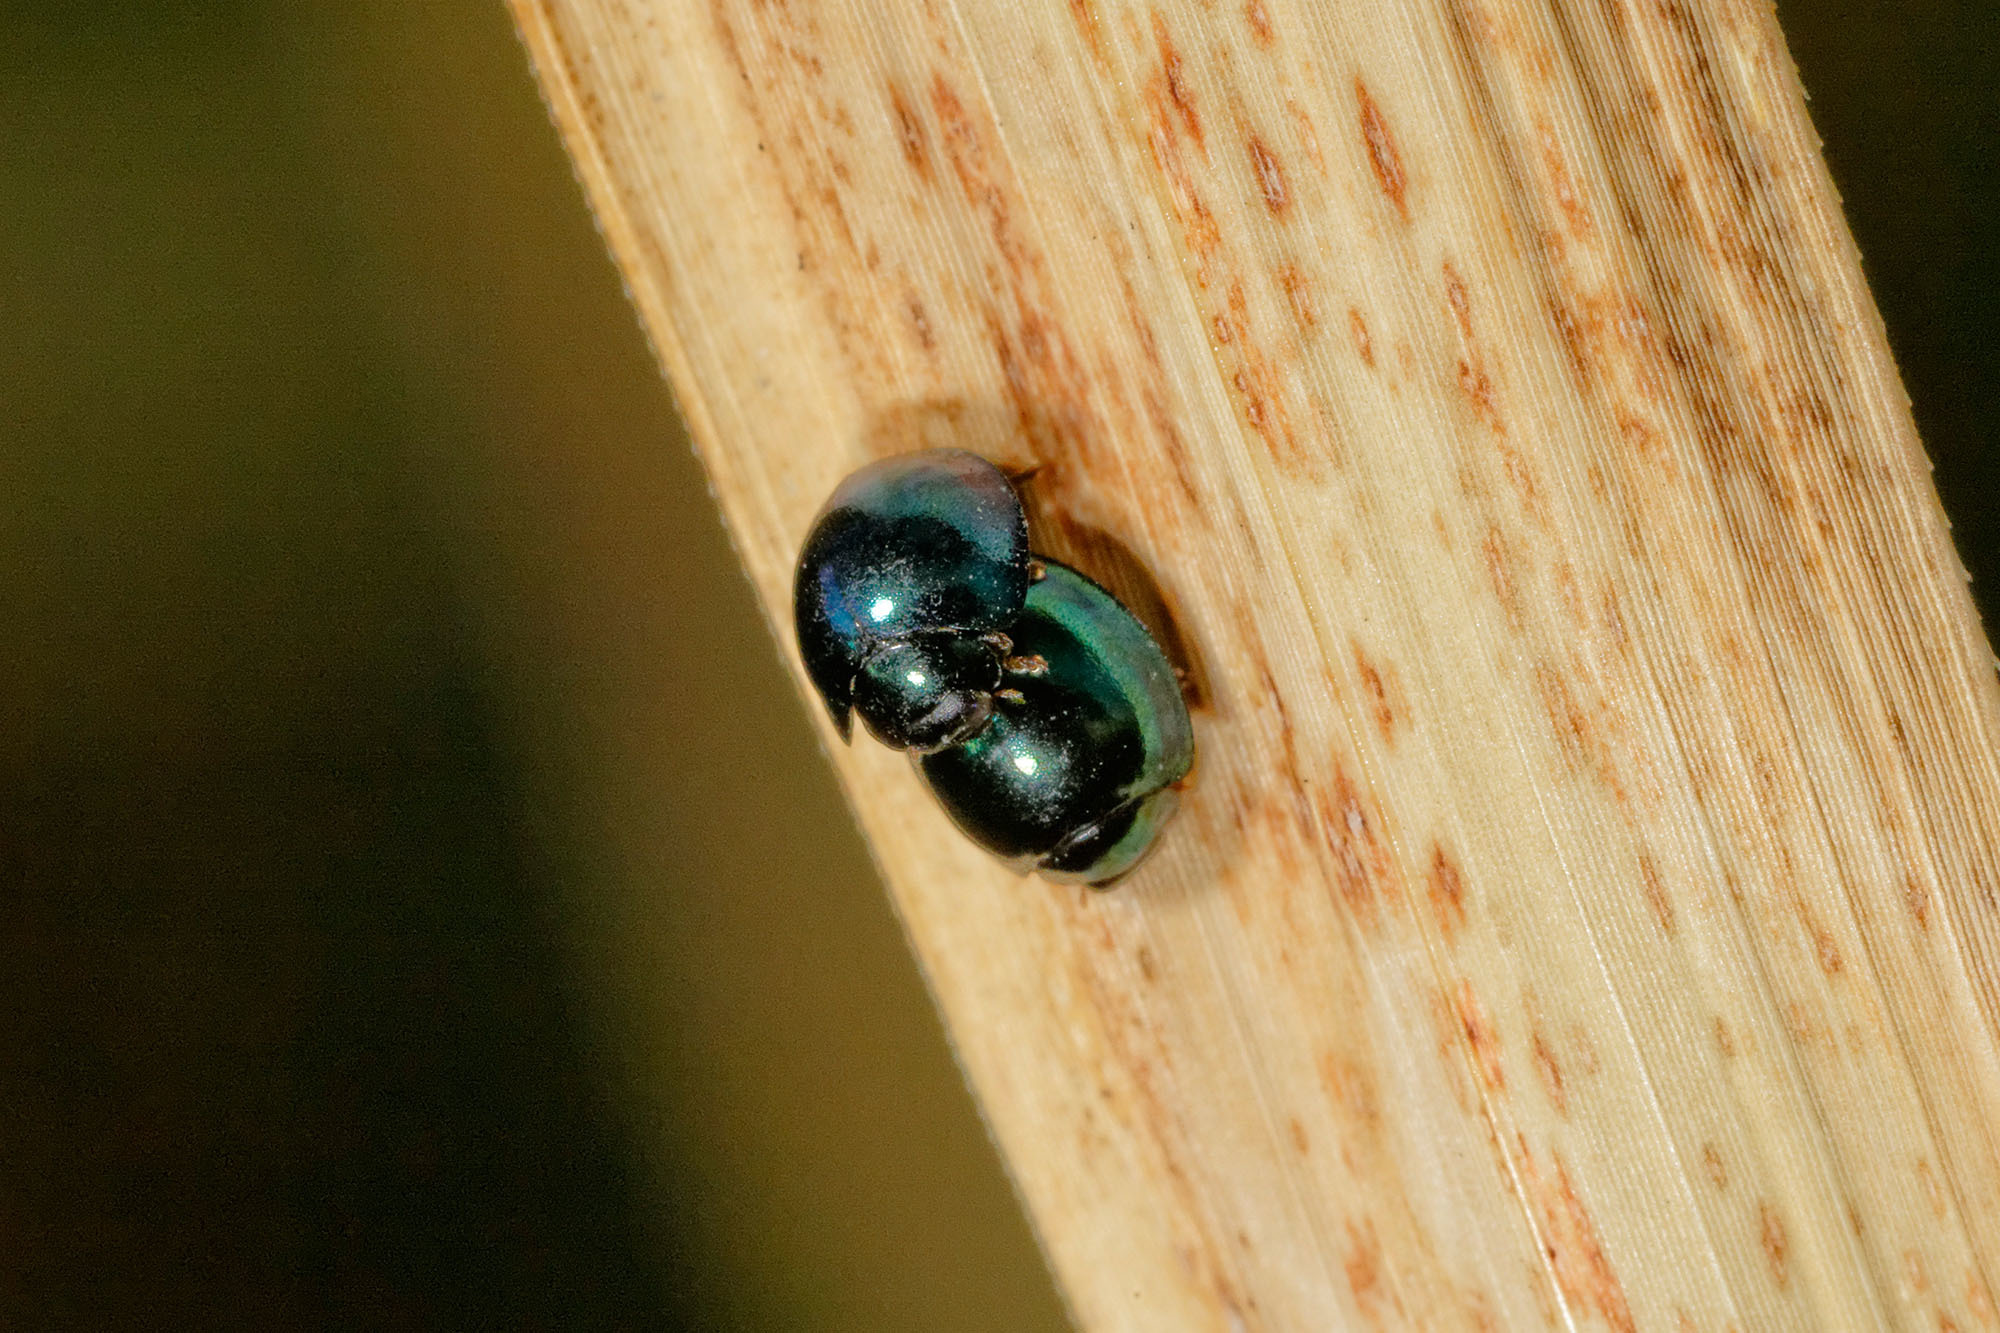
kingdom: Animalia
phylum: Arthropoda
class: Insecta
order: Coleoptera
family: Coccinellidae
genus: Halmus
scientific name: Halmus chalybeus
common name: Steel blue ladybird beetle
